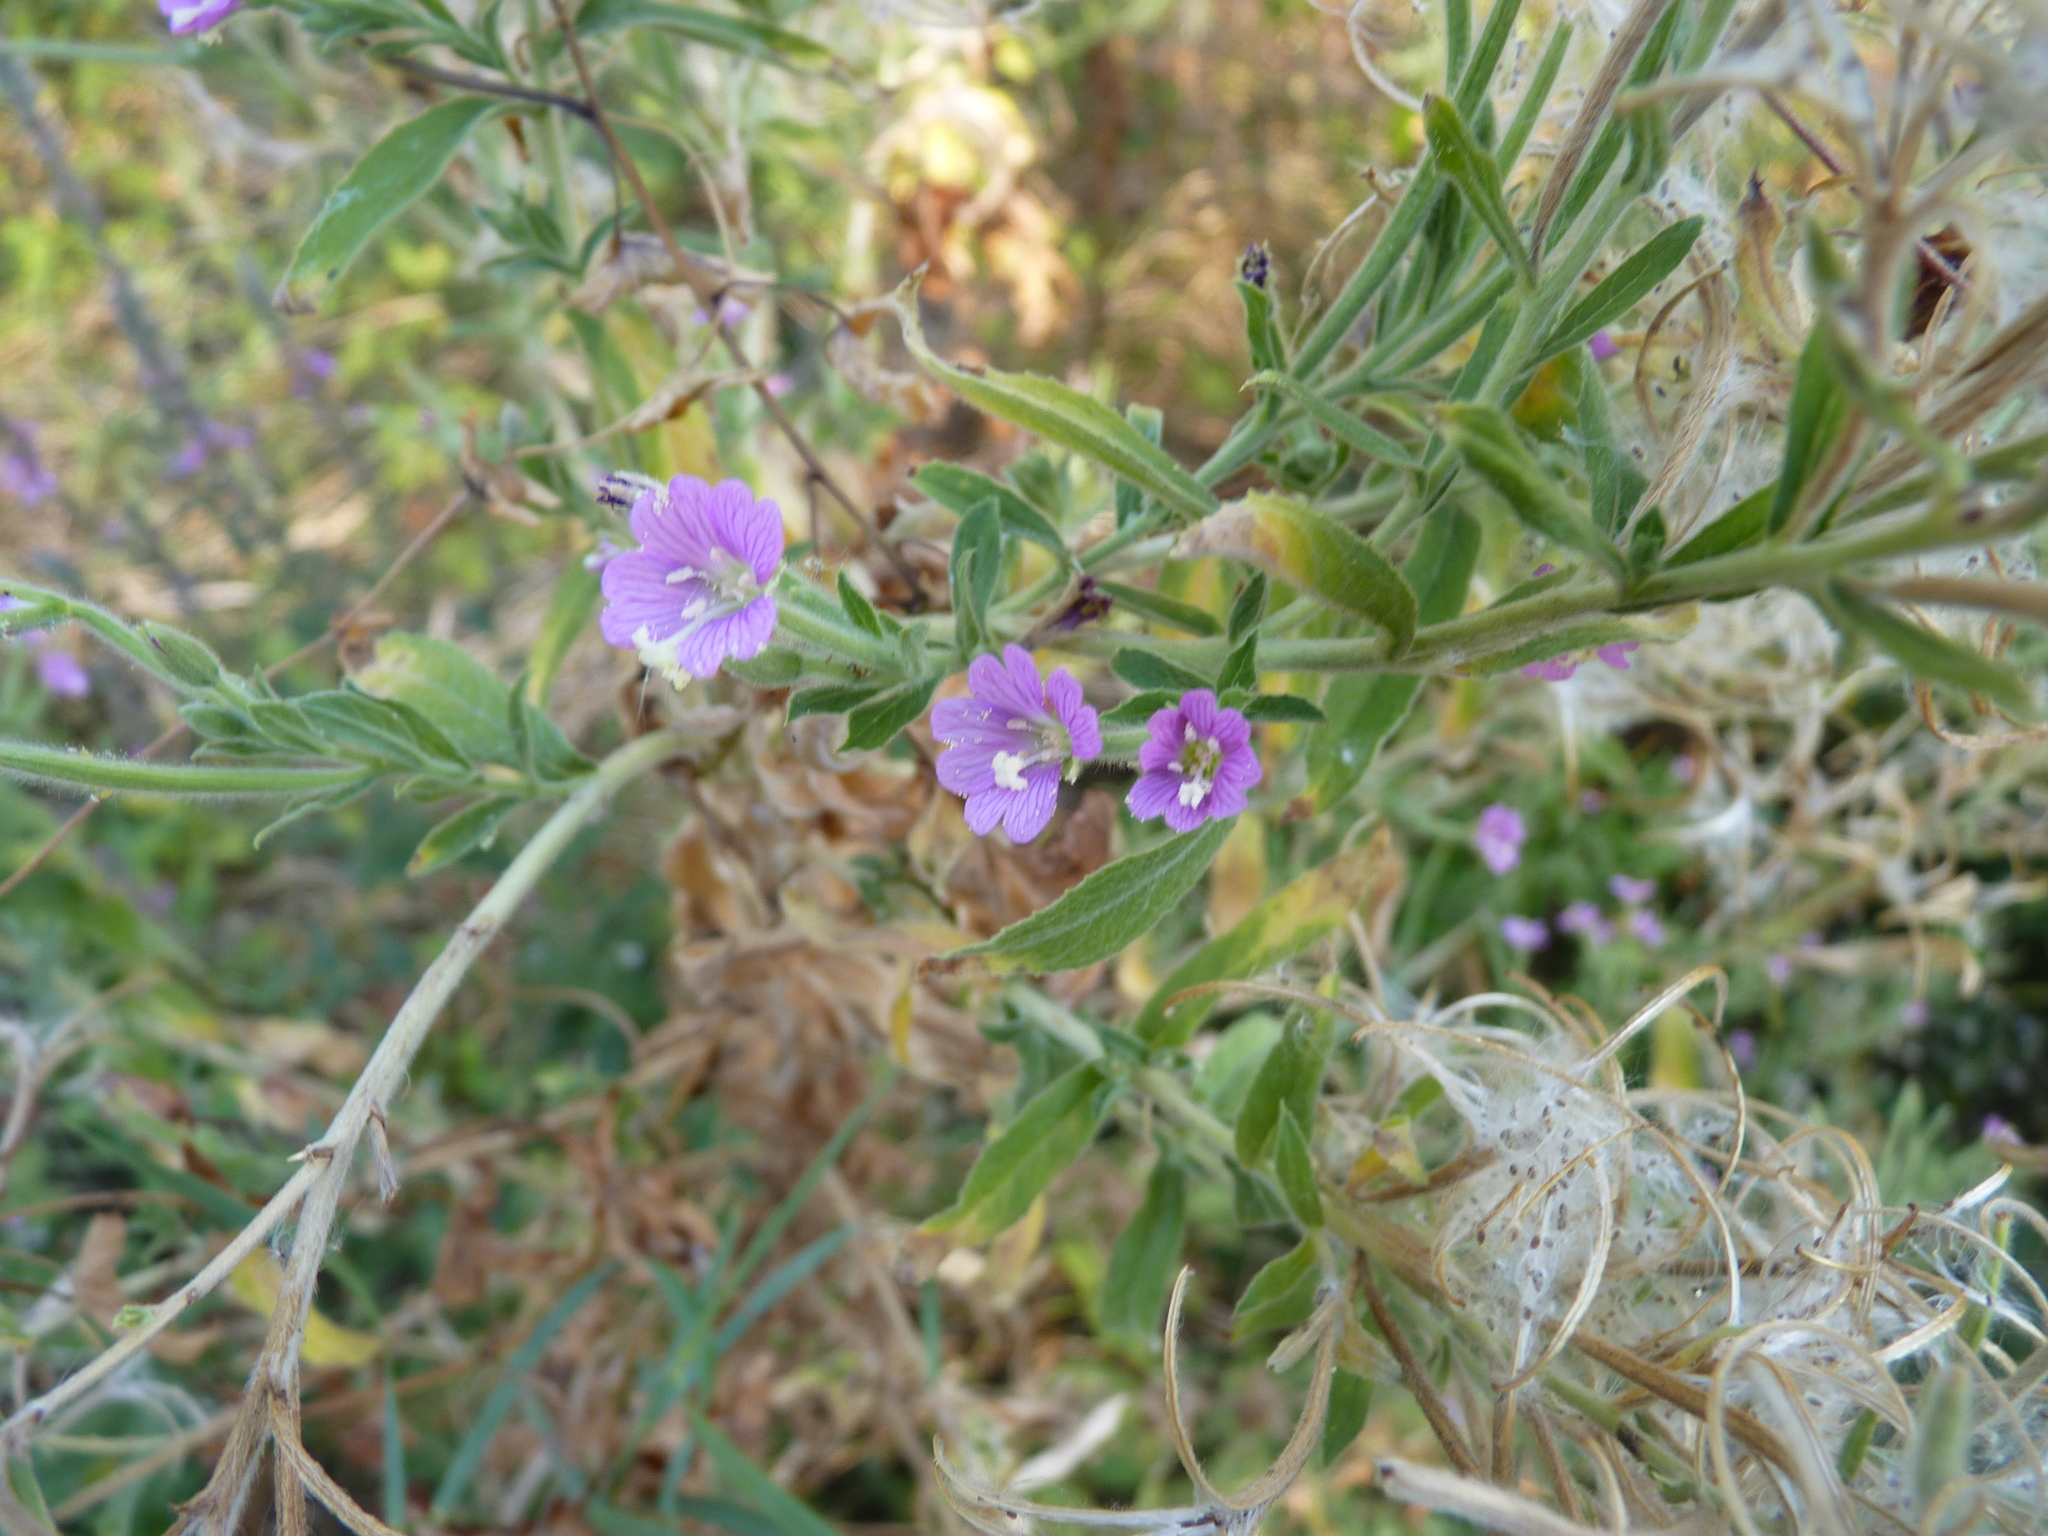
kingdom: Plantae
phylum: Tracheophyta
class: Magnoliopsida
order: Myrtales
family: Onagraceae
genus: Epilobium
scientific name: Epilobium hirsutum
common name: Great willowherb
